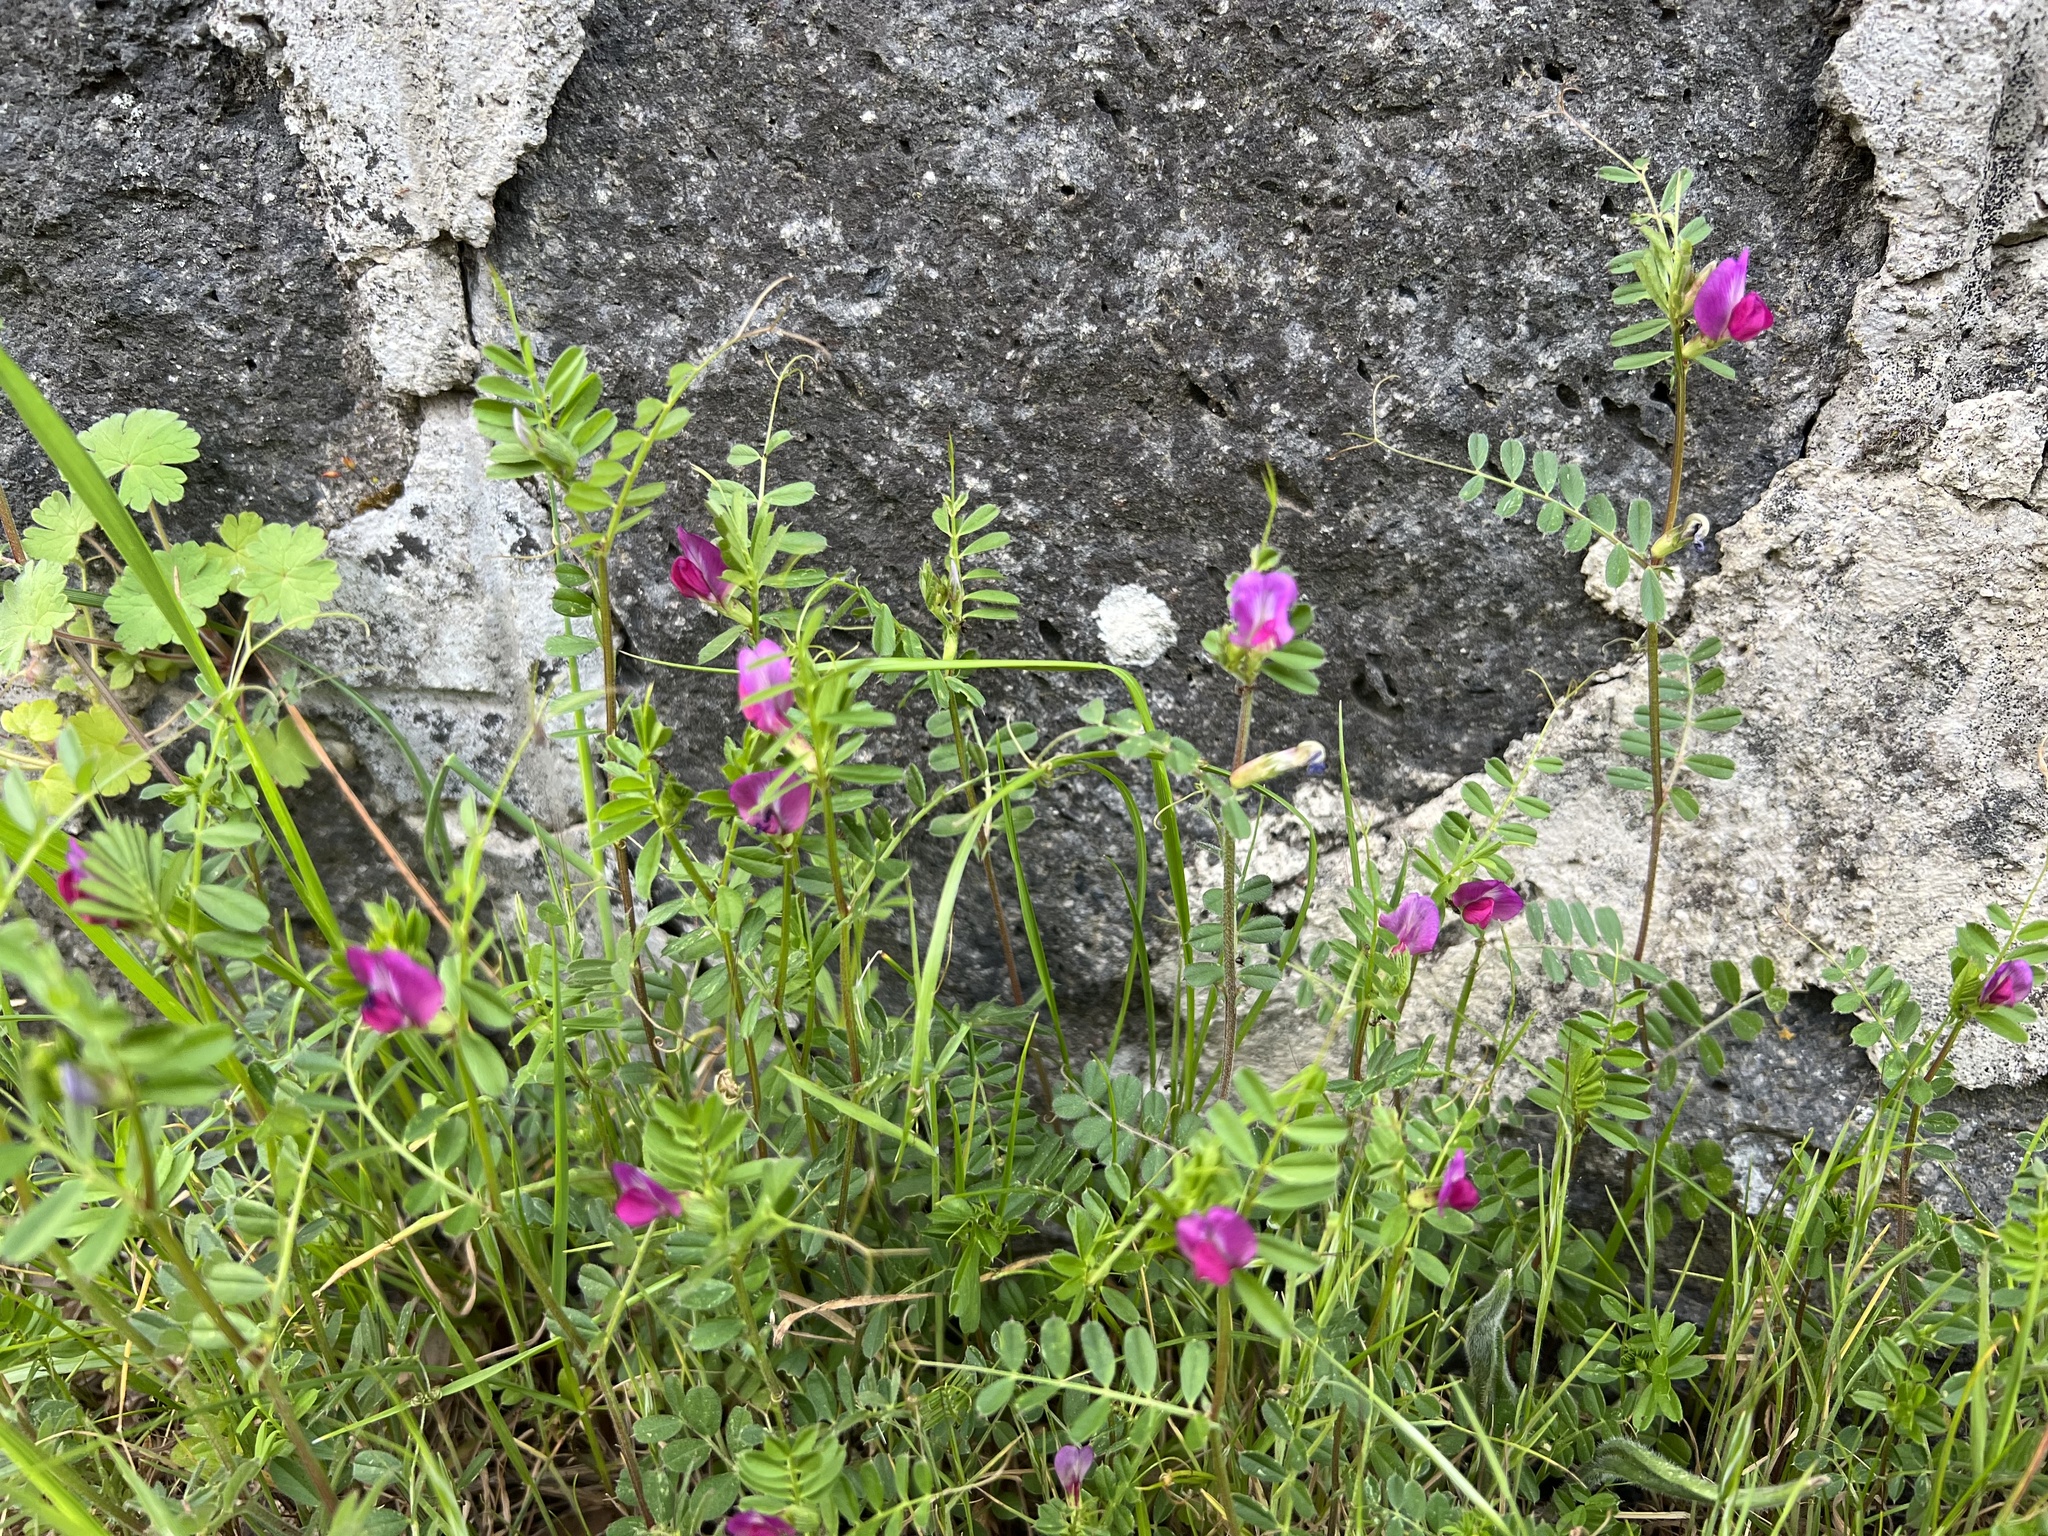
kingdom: Plantae
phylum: Tracheophyta
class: Magnoliopsida
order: Fabales
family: Fabaceae
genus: Vicia
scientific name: Vicia sativa
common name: Garden vetch
